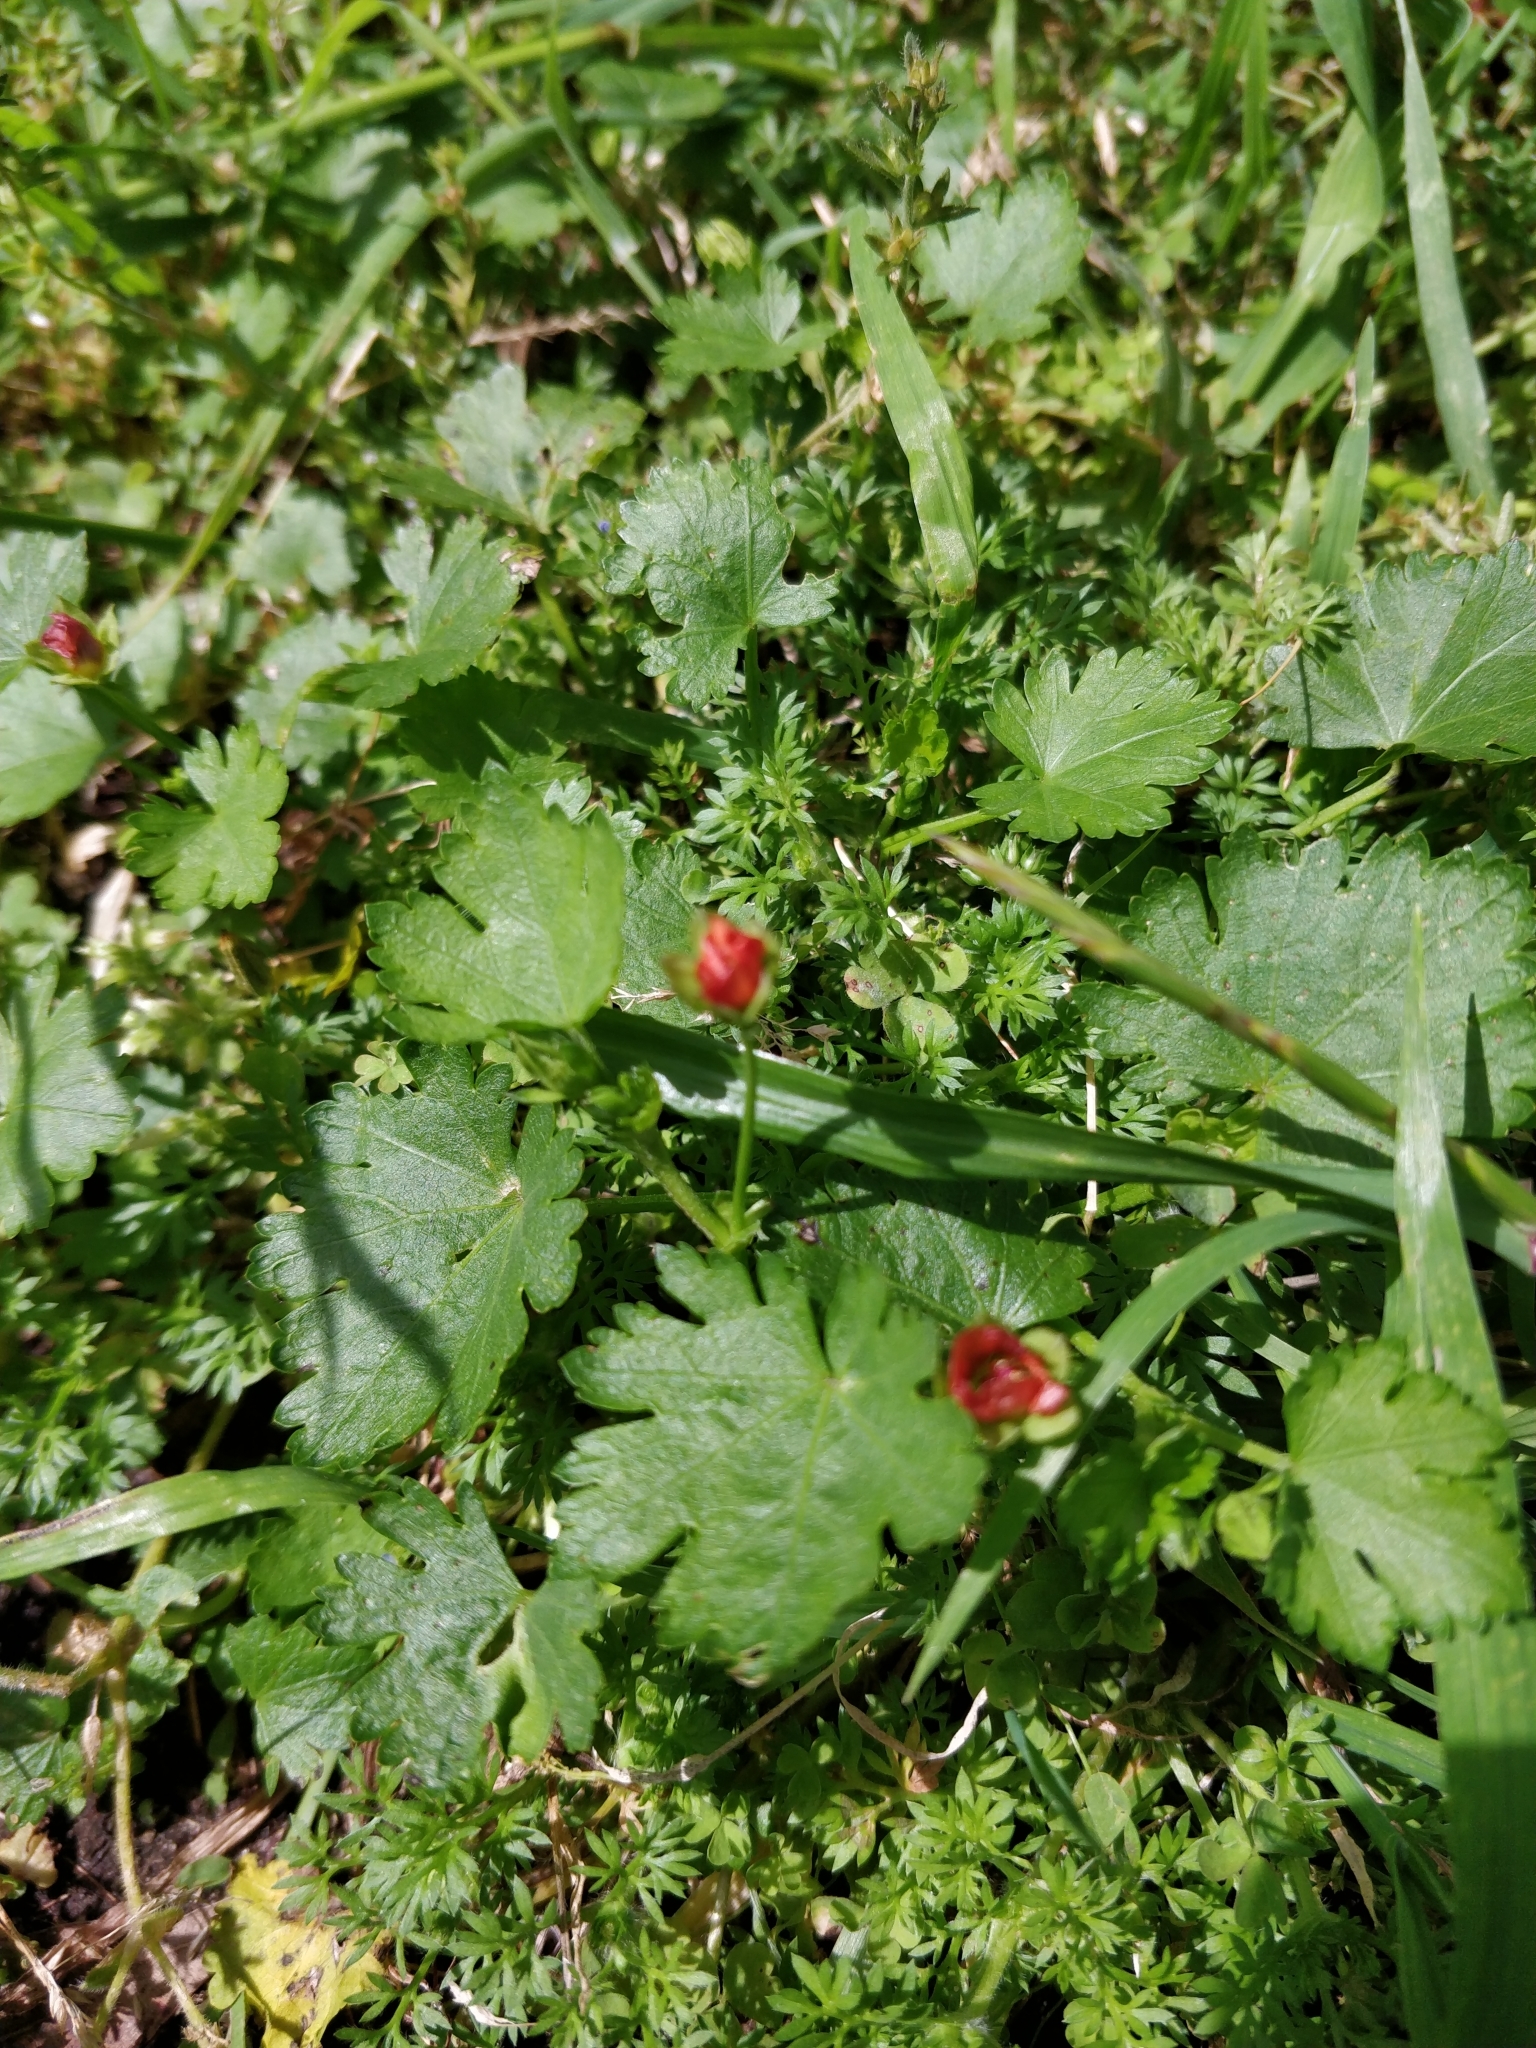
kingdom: Plantae
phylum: Tracheophyta
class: Magnoliopsida
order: Malvales
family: Malvaceae
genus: Modiola
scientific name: Modiola caroliniana
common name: Carolina bristlemallow
